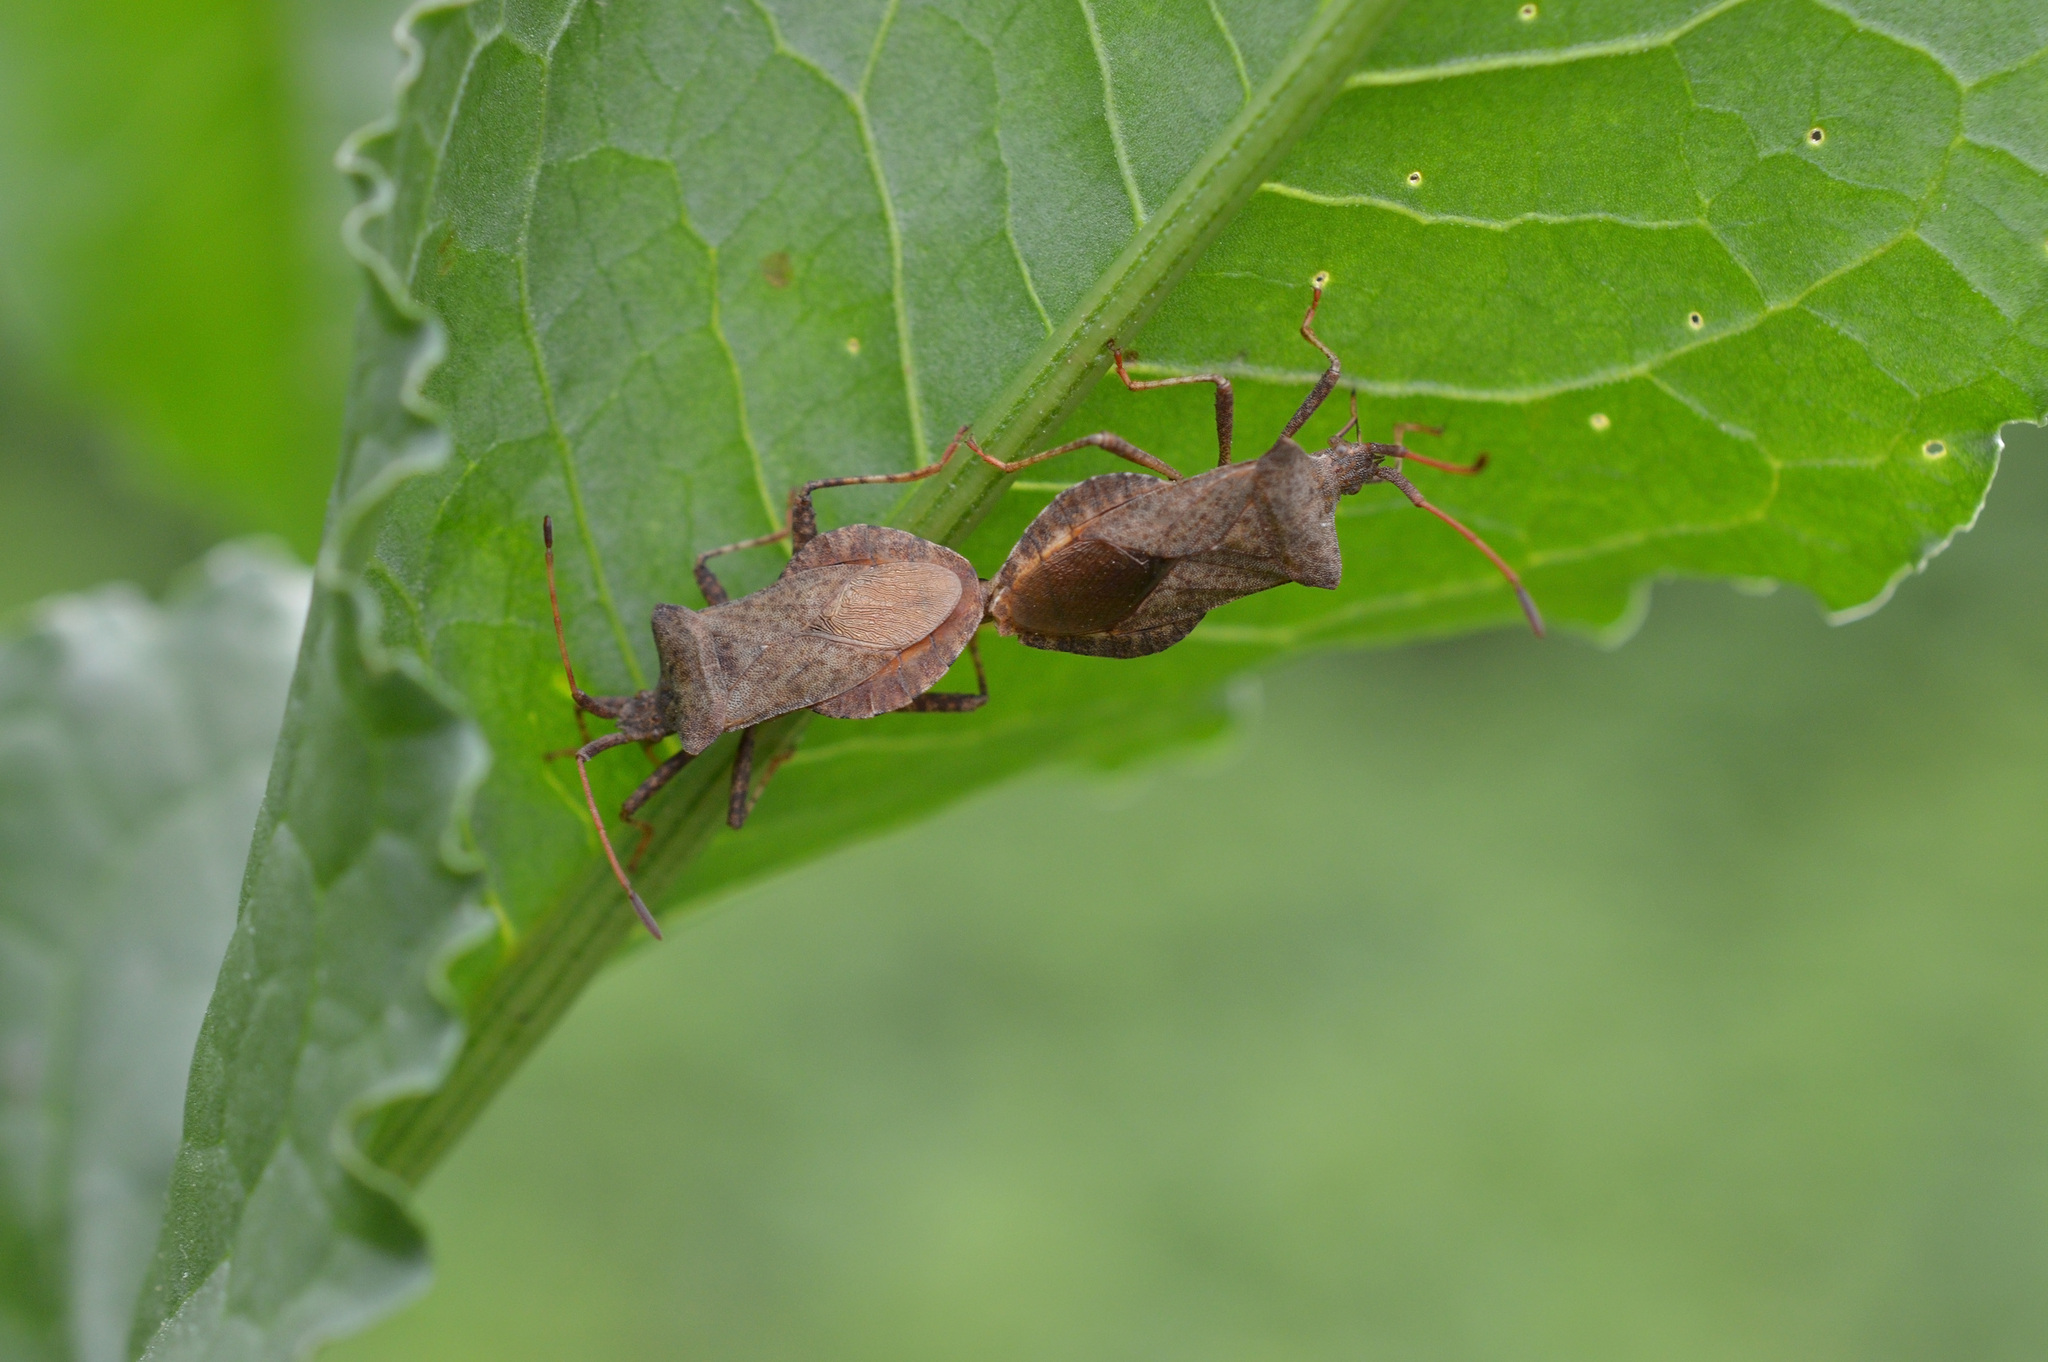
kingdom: Animalia
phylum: Arthropoda
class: Insecta
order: Hemiptera
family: Coreidae
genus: Coreus
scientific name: Coreus marginatus
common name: Dock bug
